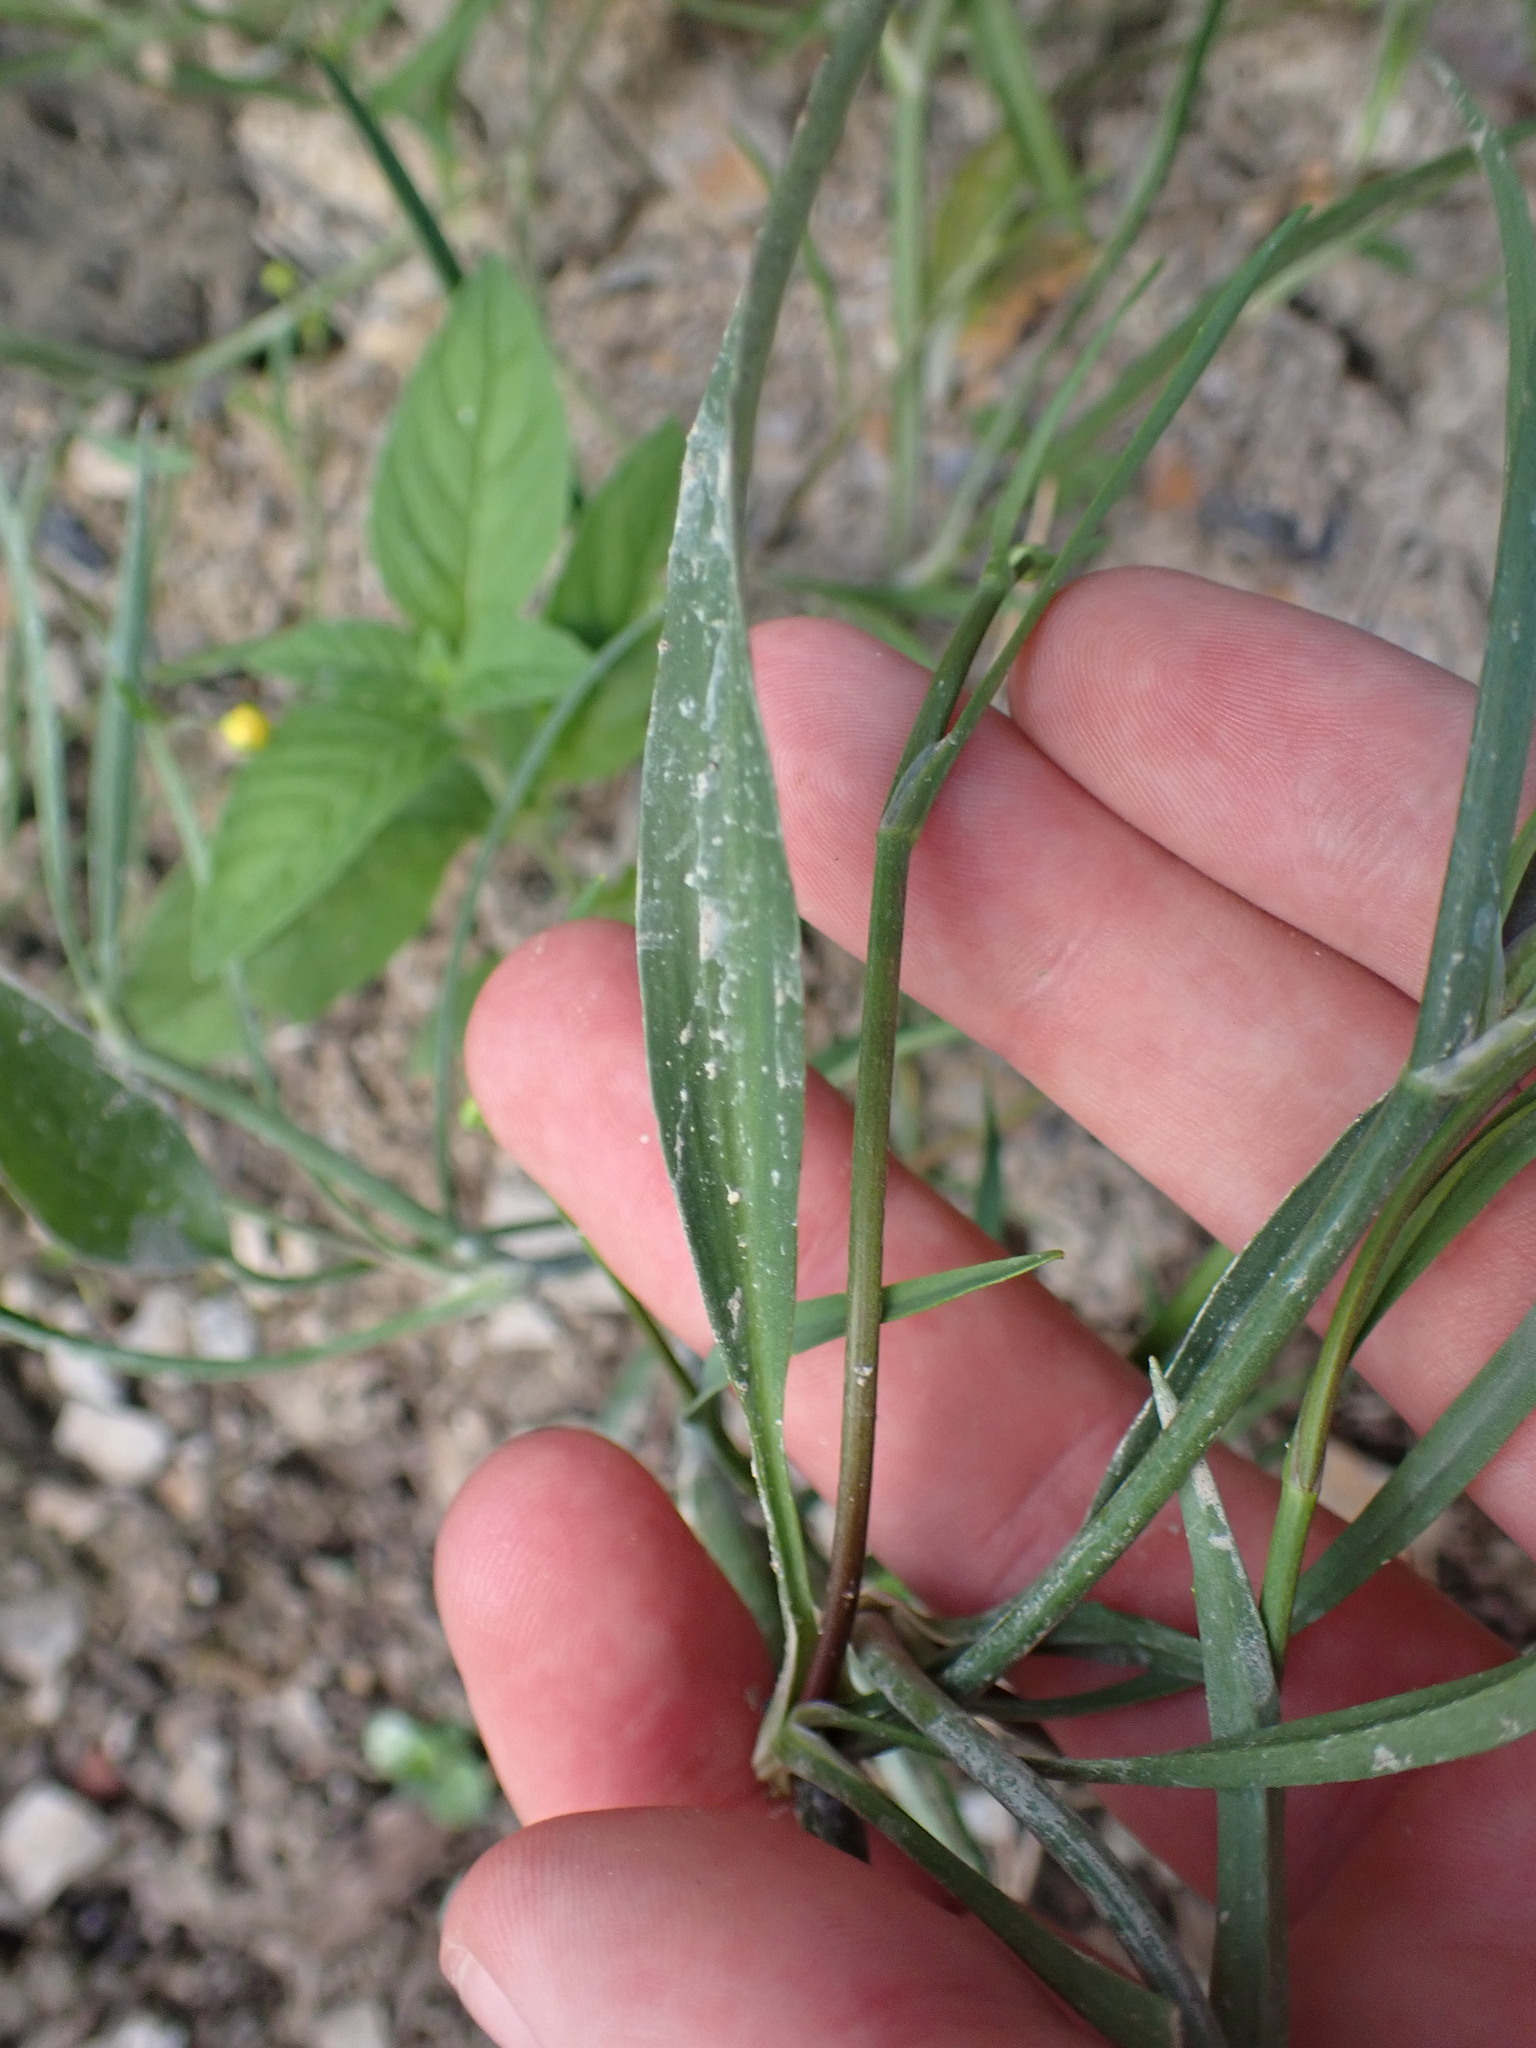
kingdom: Plantae
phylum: Tracheophyta
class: Magnoliopsida
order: Ranunculales
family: Ranunculaceae
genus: Ranunculus
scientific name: Ranunculus flammula
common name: Lesser spearwort
